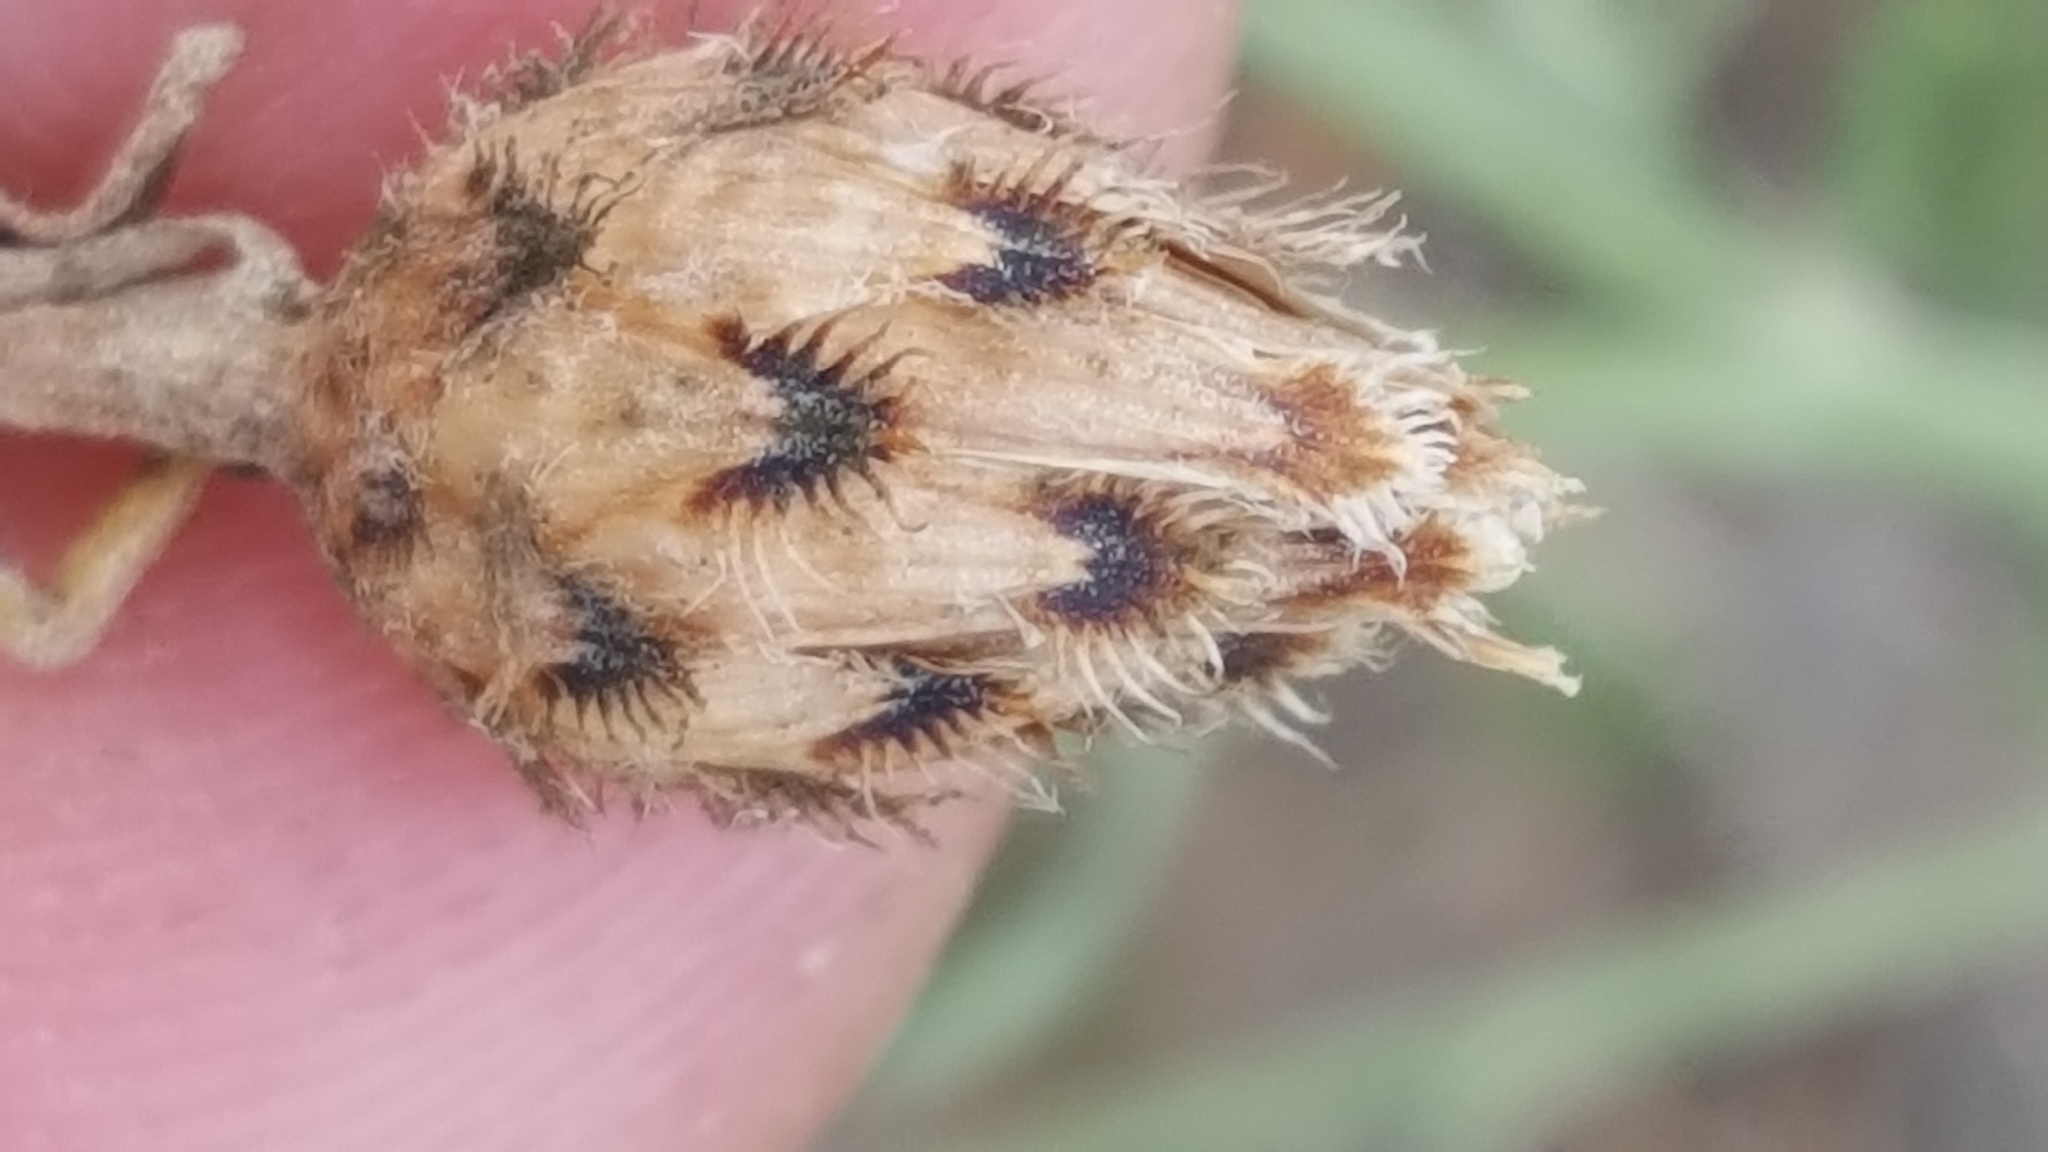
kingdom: Plantae
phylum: Tracheophyta
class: Magnoliopsida
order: Asterales
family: Asteraceae
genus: Centaurea
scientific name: Centaurea stoebe
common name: Spotted knapweed
